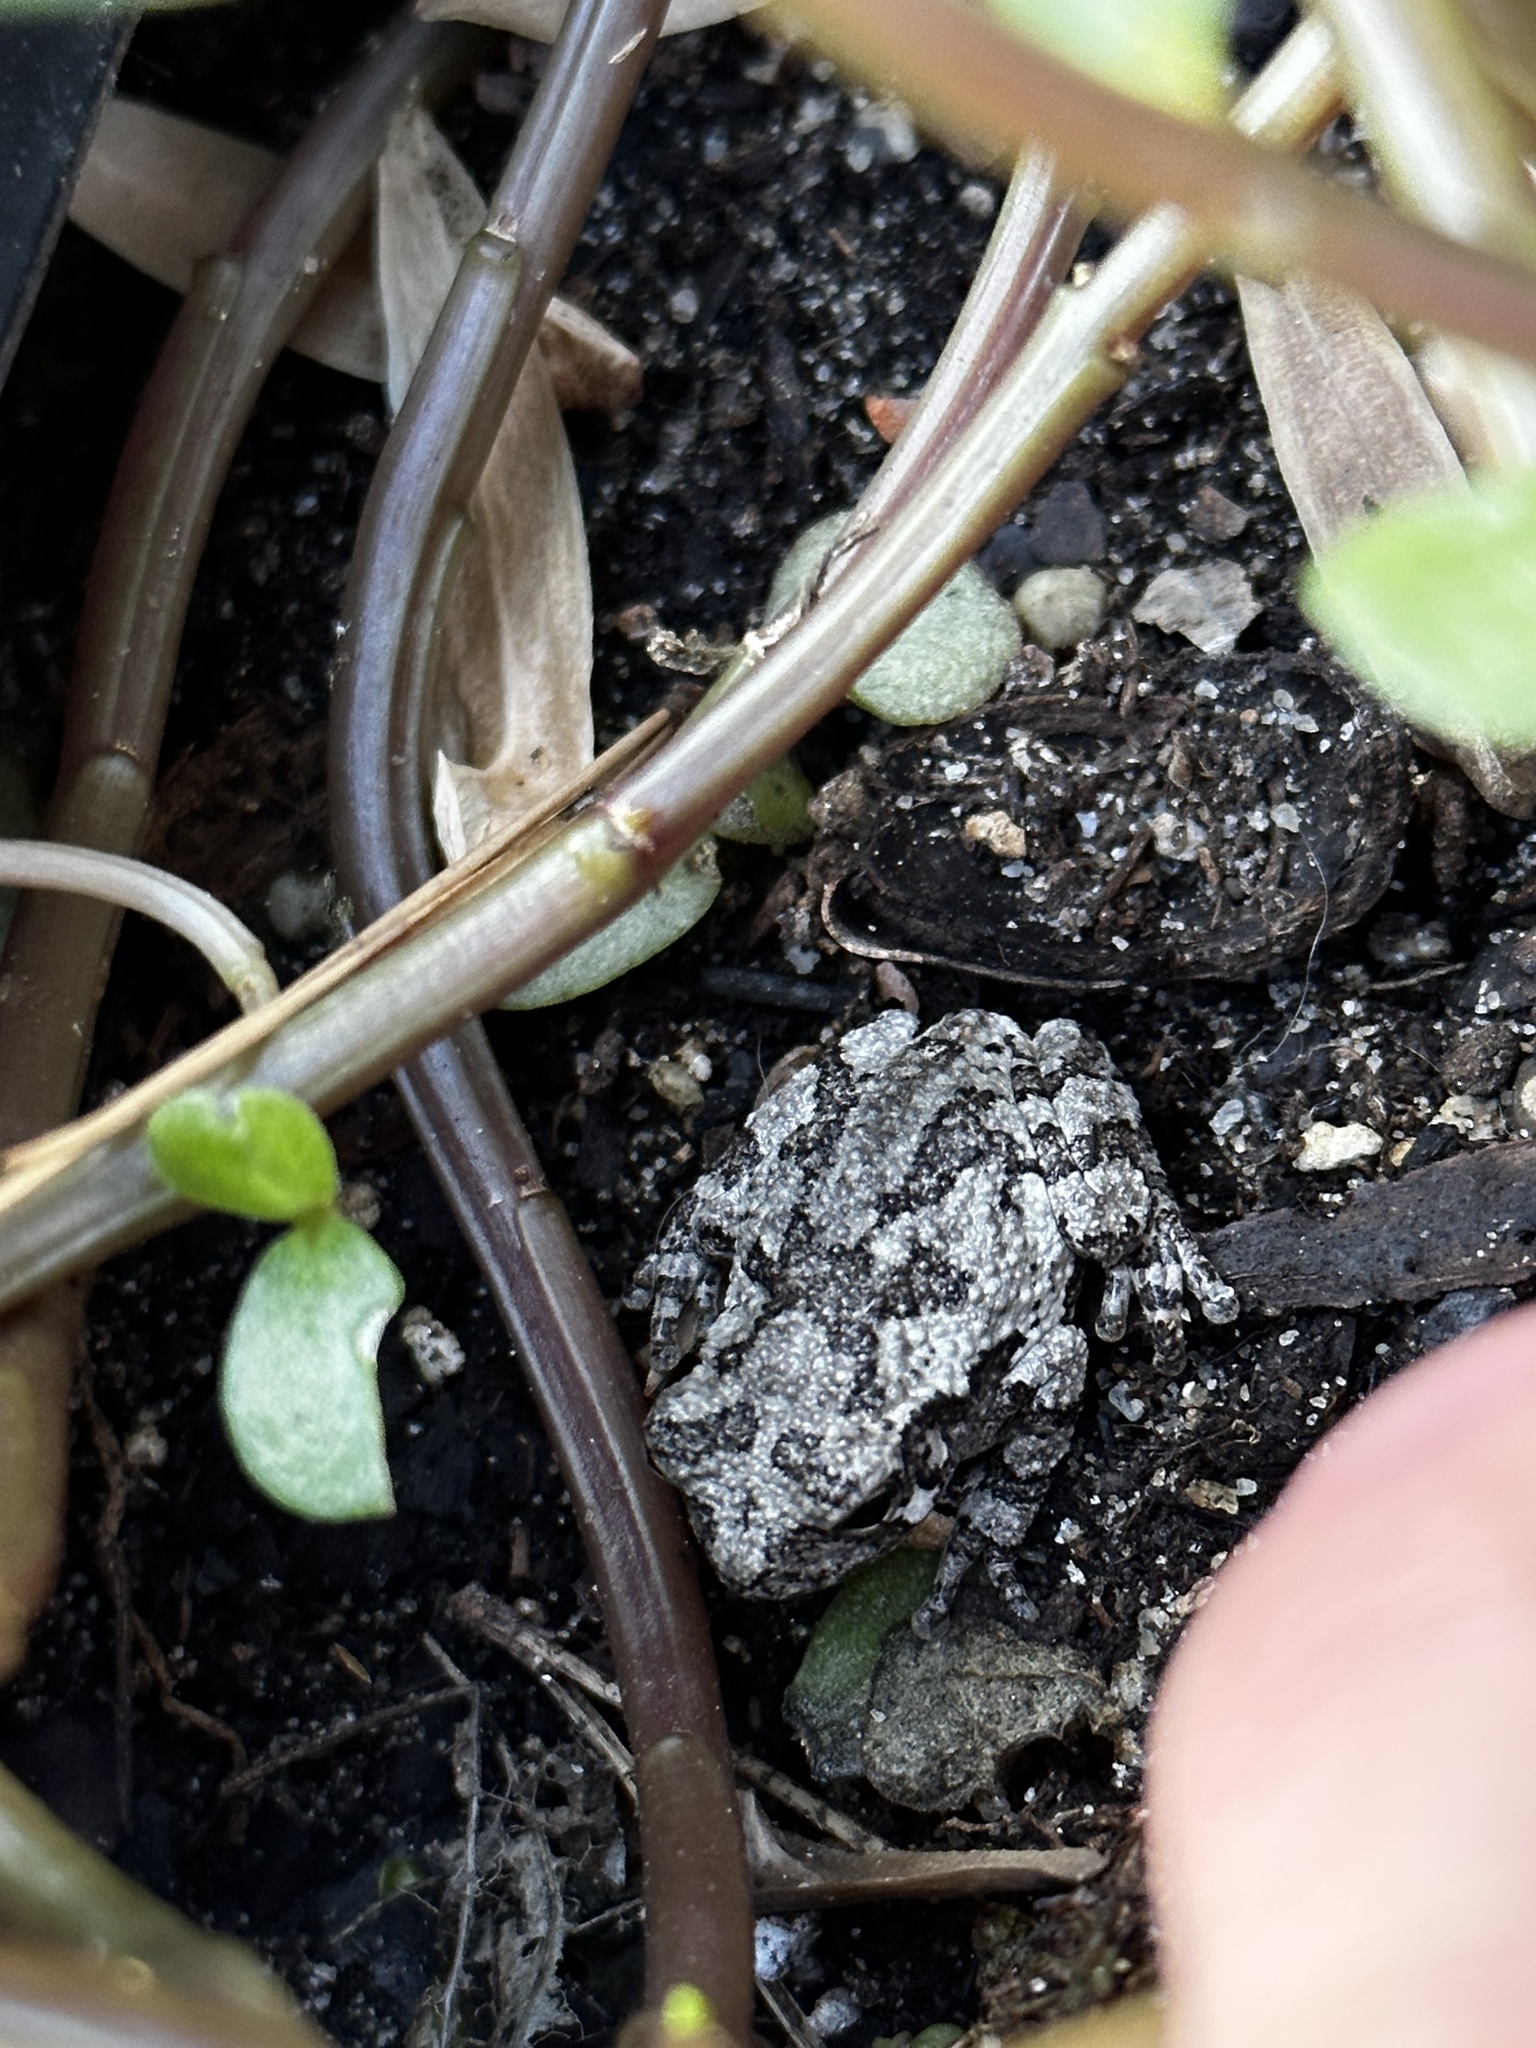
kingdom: Animalia
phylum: Chordata
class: Amphibia
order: Anura
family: Hylidae
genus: Dryophytes
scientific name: Dryophytes chrysoscelis
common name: Cope's gray treefrog
